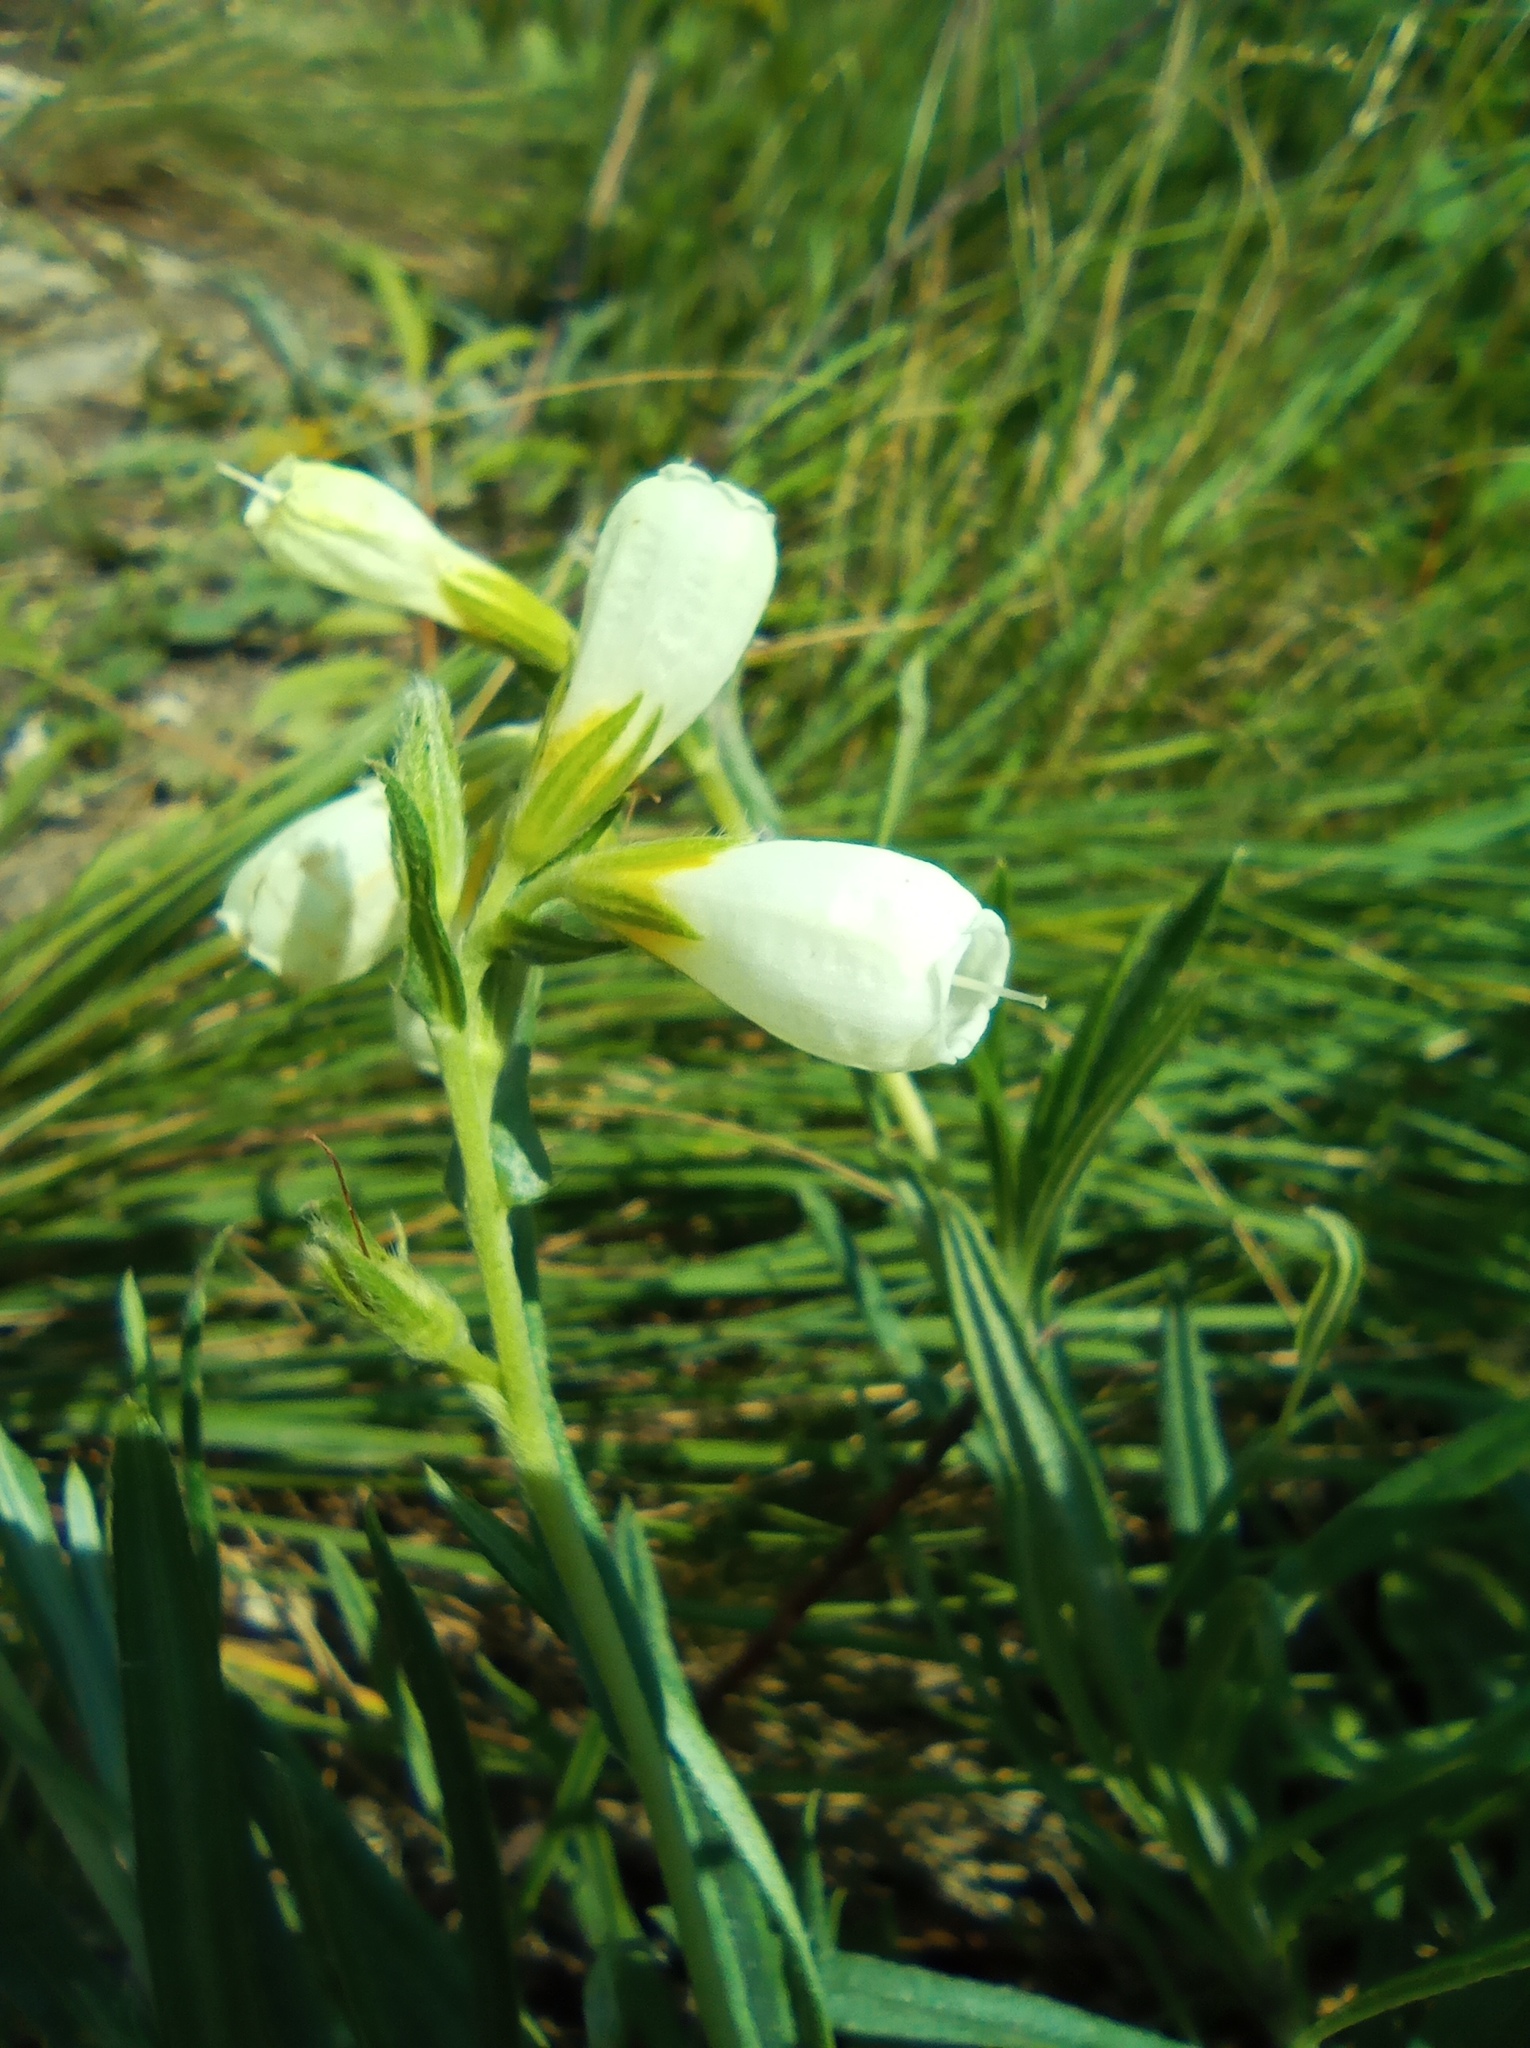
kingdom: Plantae
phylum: Tracheophyta
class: Magnoliopsida
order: Boraginales
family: Boraginaceae
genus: Onosma
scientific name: Onosma simplicissima
